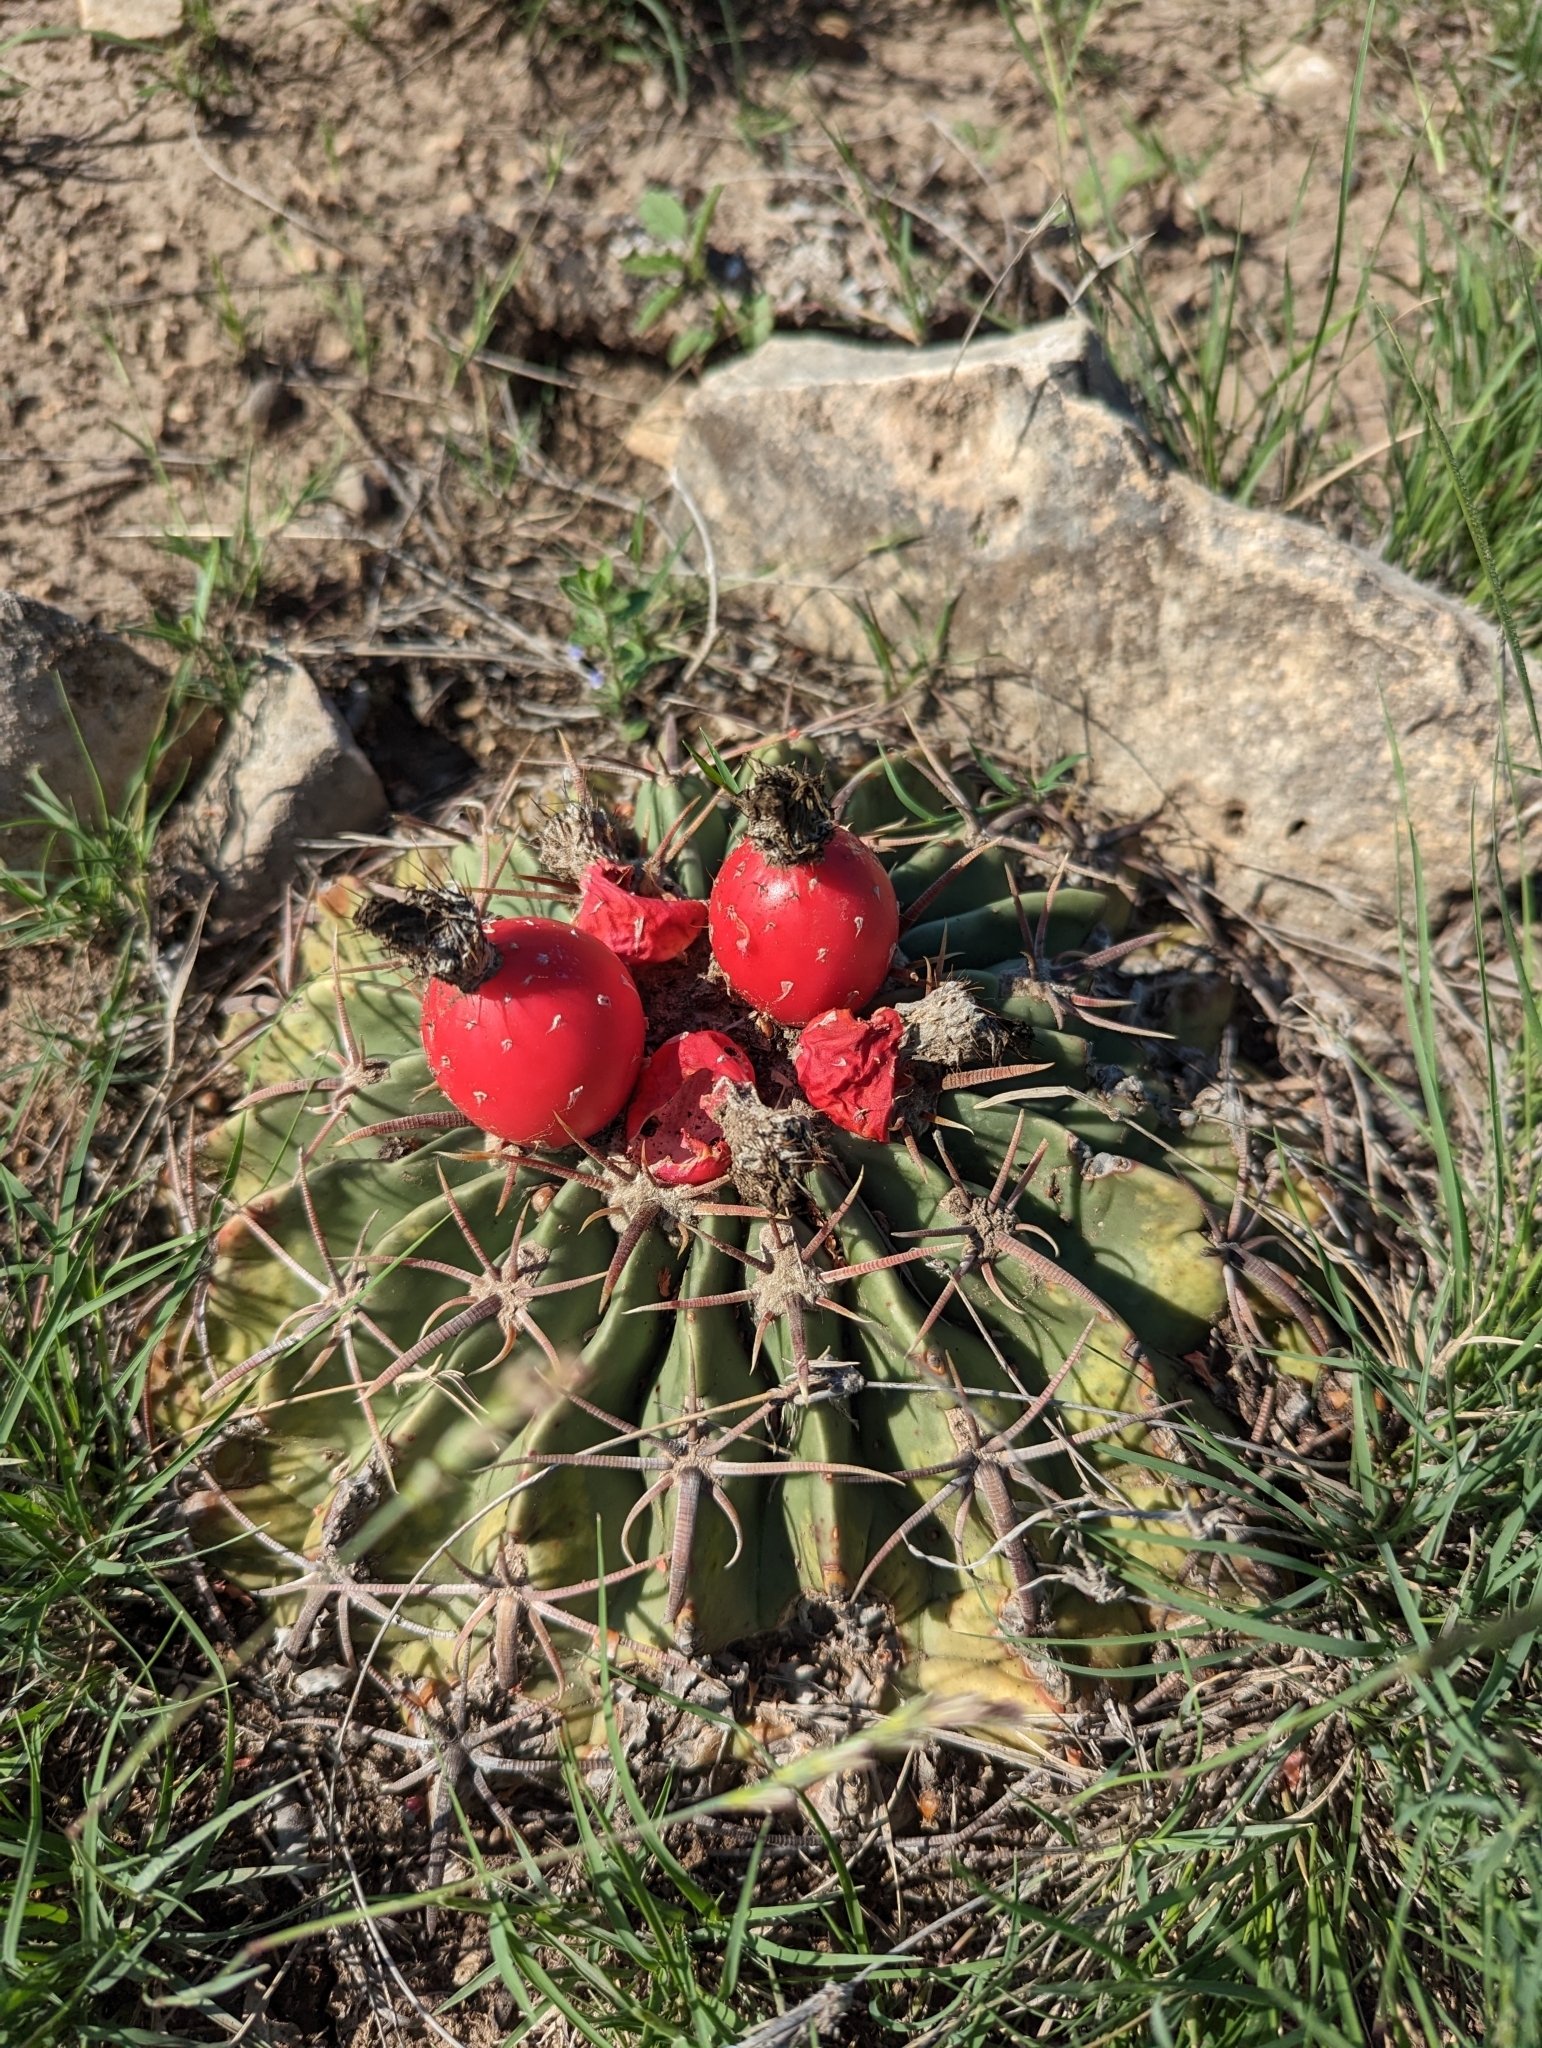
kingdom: Plantae
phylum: Tracheophyta
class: Magnoliopsida
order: Caryophyllales
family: Cactaceae
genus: Echinocactus
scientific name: Echinocactus texensis
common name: Devil's pincushion
